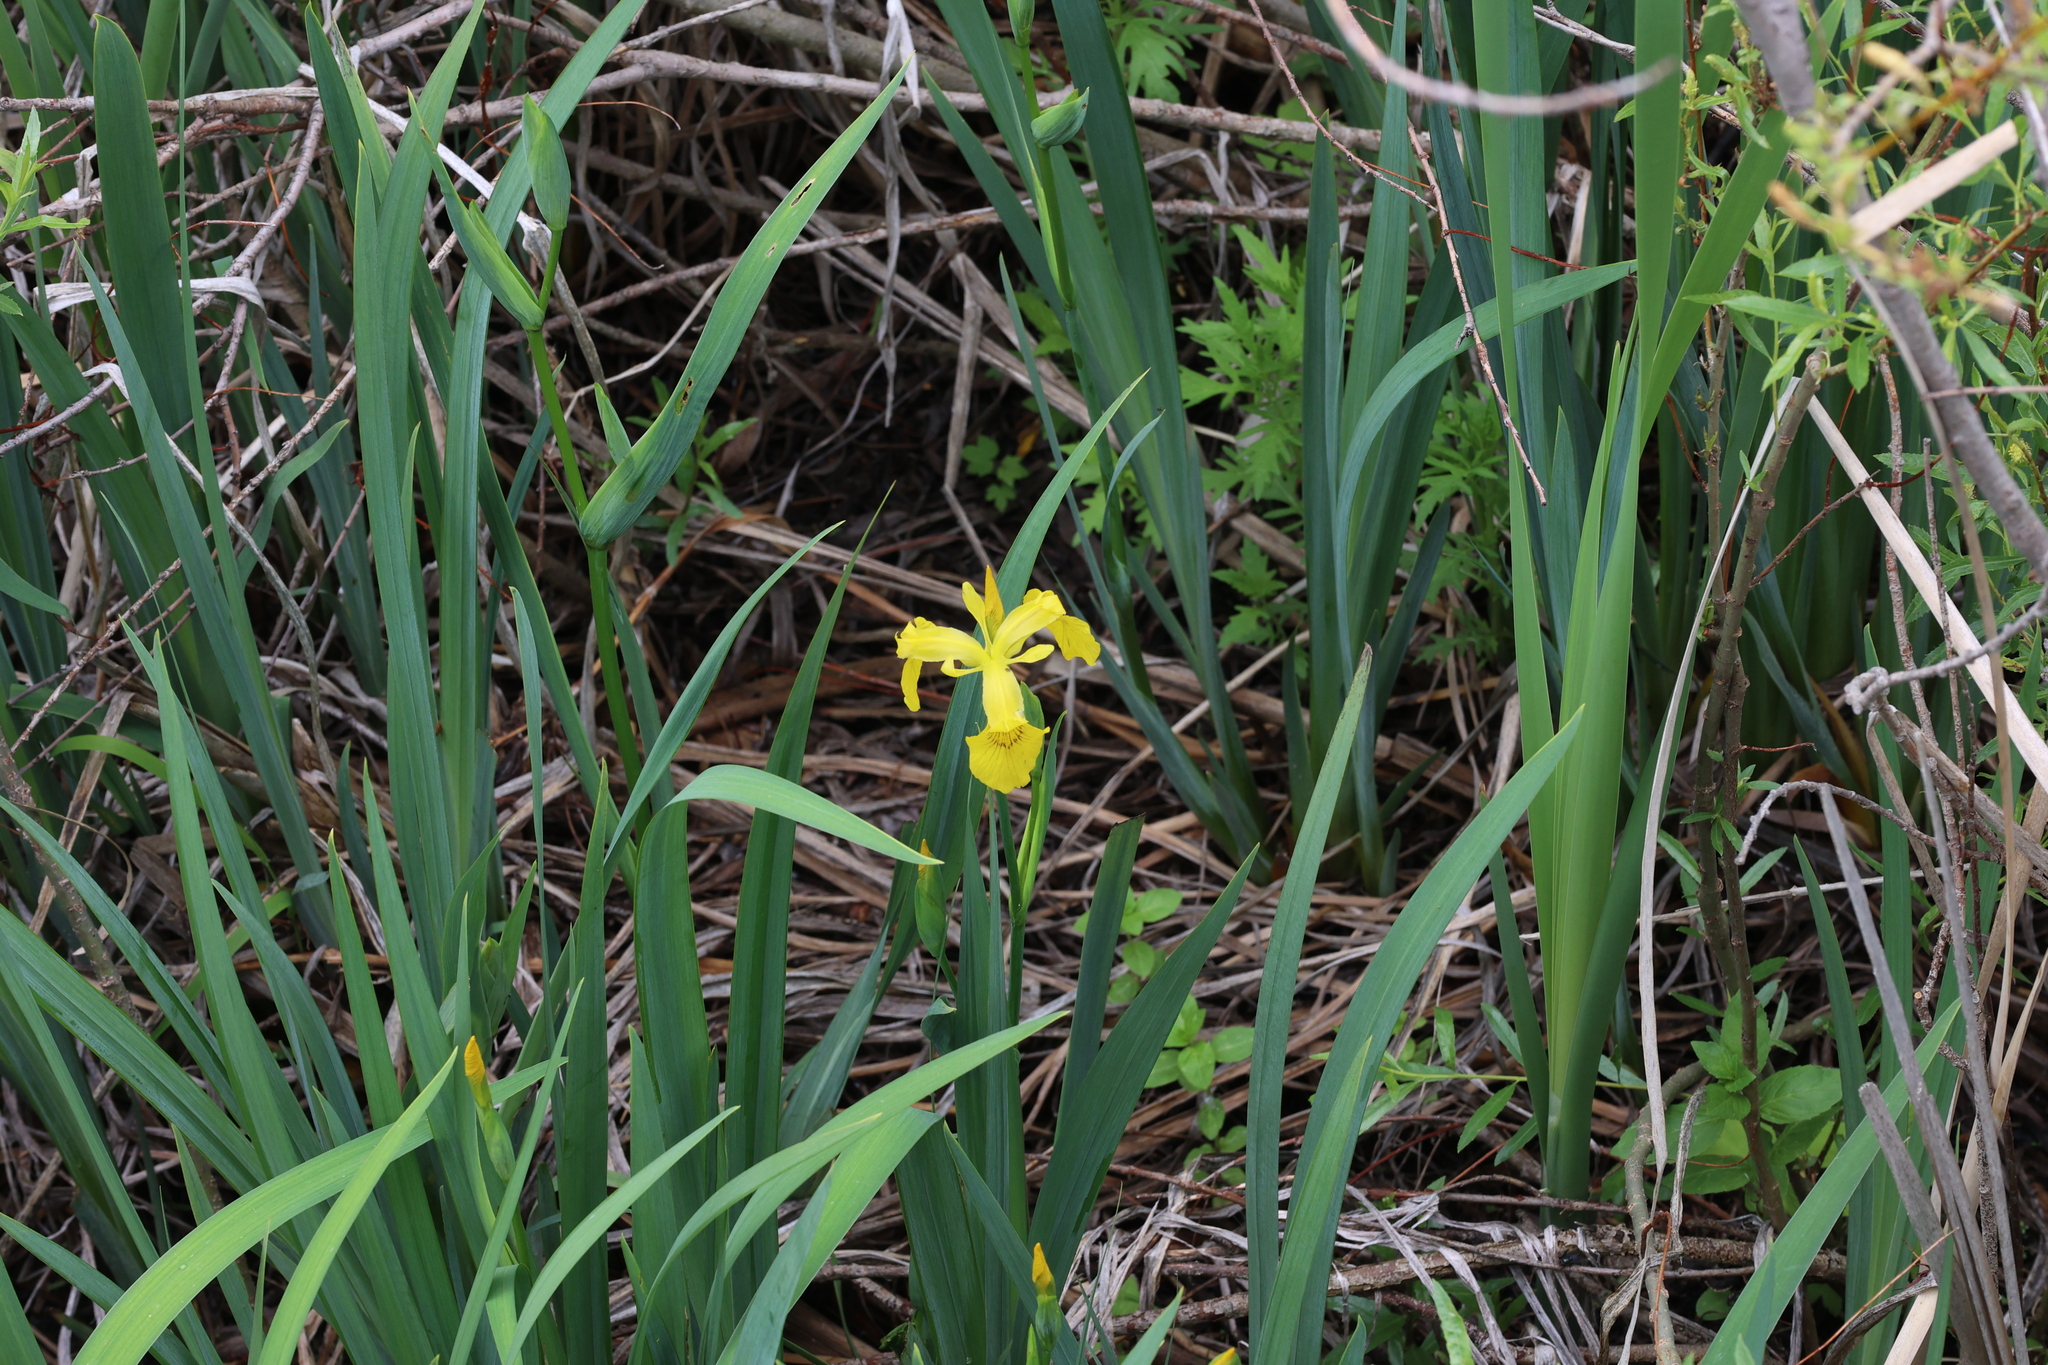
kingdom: Plantae
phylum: Tracheophyta
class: Liliopsida
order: Asparagales
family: Iridaceae
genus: Iris
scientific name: Iris pseudacorus
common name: Yellow flag
